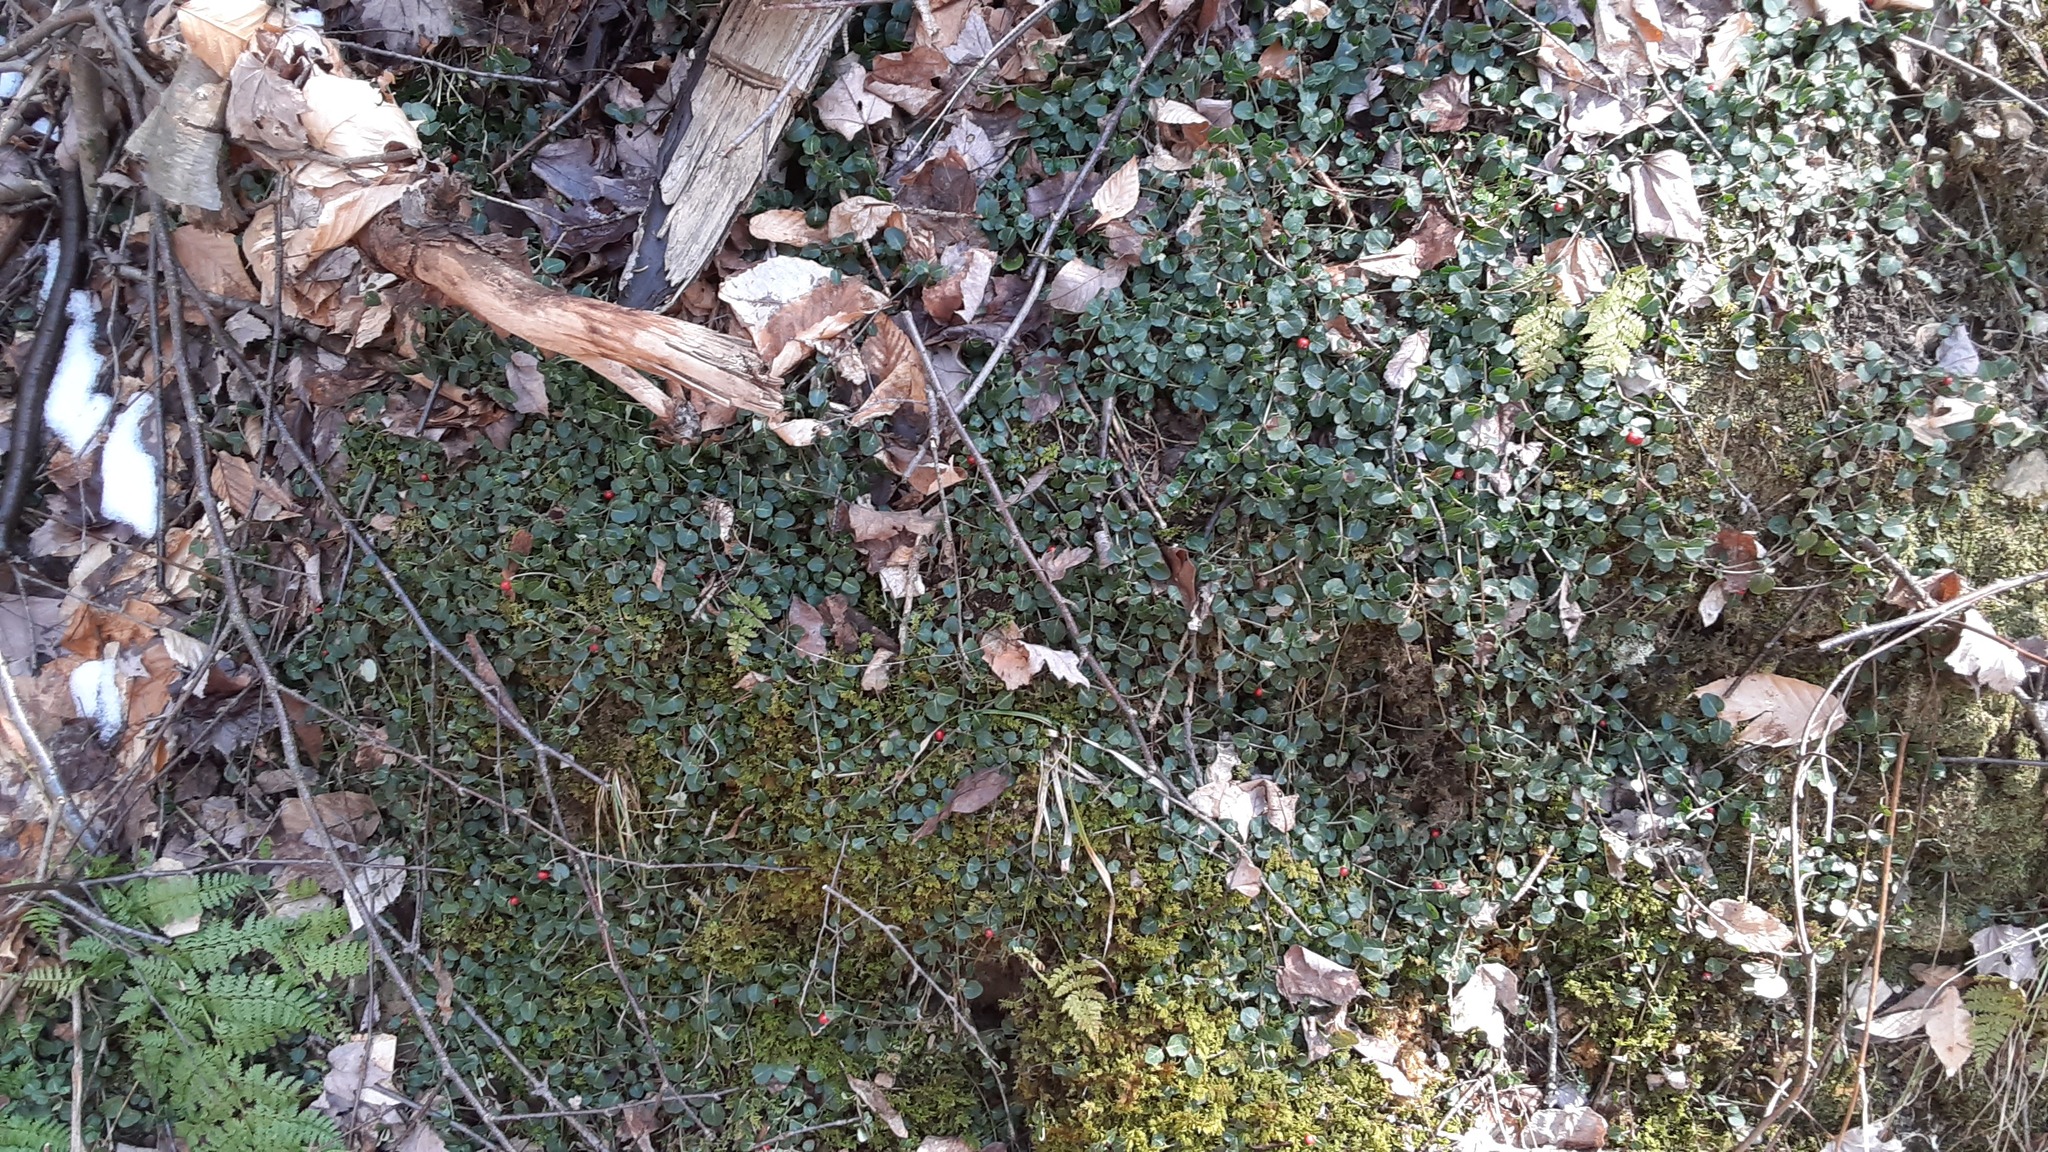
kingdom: Plantae
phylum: Tracheophyta
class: Magnoliopsida
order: Gentianales
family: Rubiaceae
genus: Mitchella
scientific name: Mitchella repens
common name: Partridge-berry
